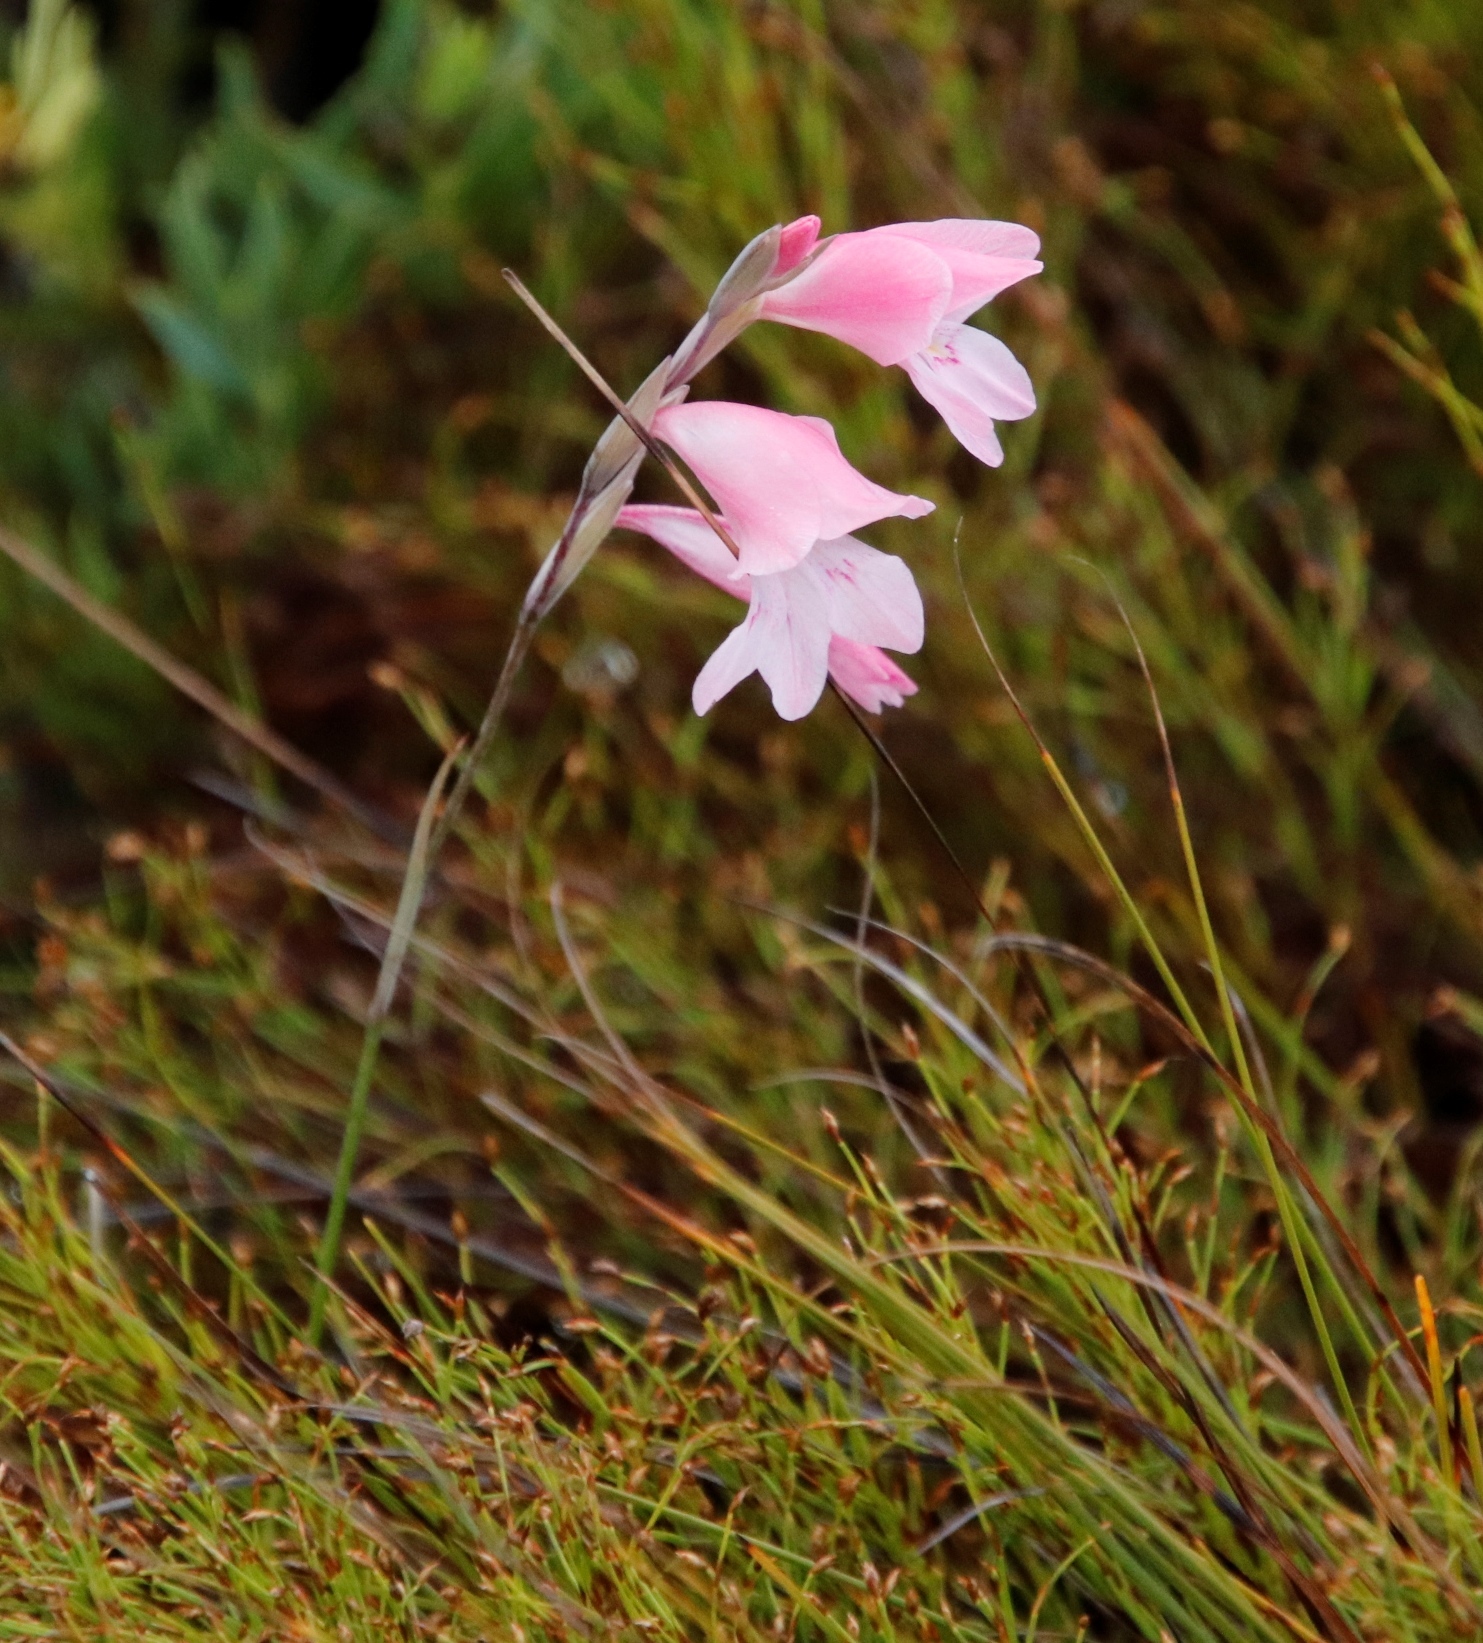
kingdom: Plantae
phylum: Tracheophyta
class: Liliopsida
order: Asparagales
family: Iridaceae
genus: Gladiolus
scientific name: Gladiolus brevifolius
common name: March pypie
